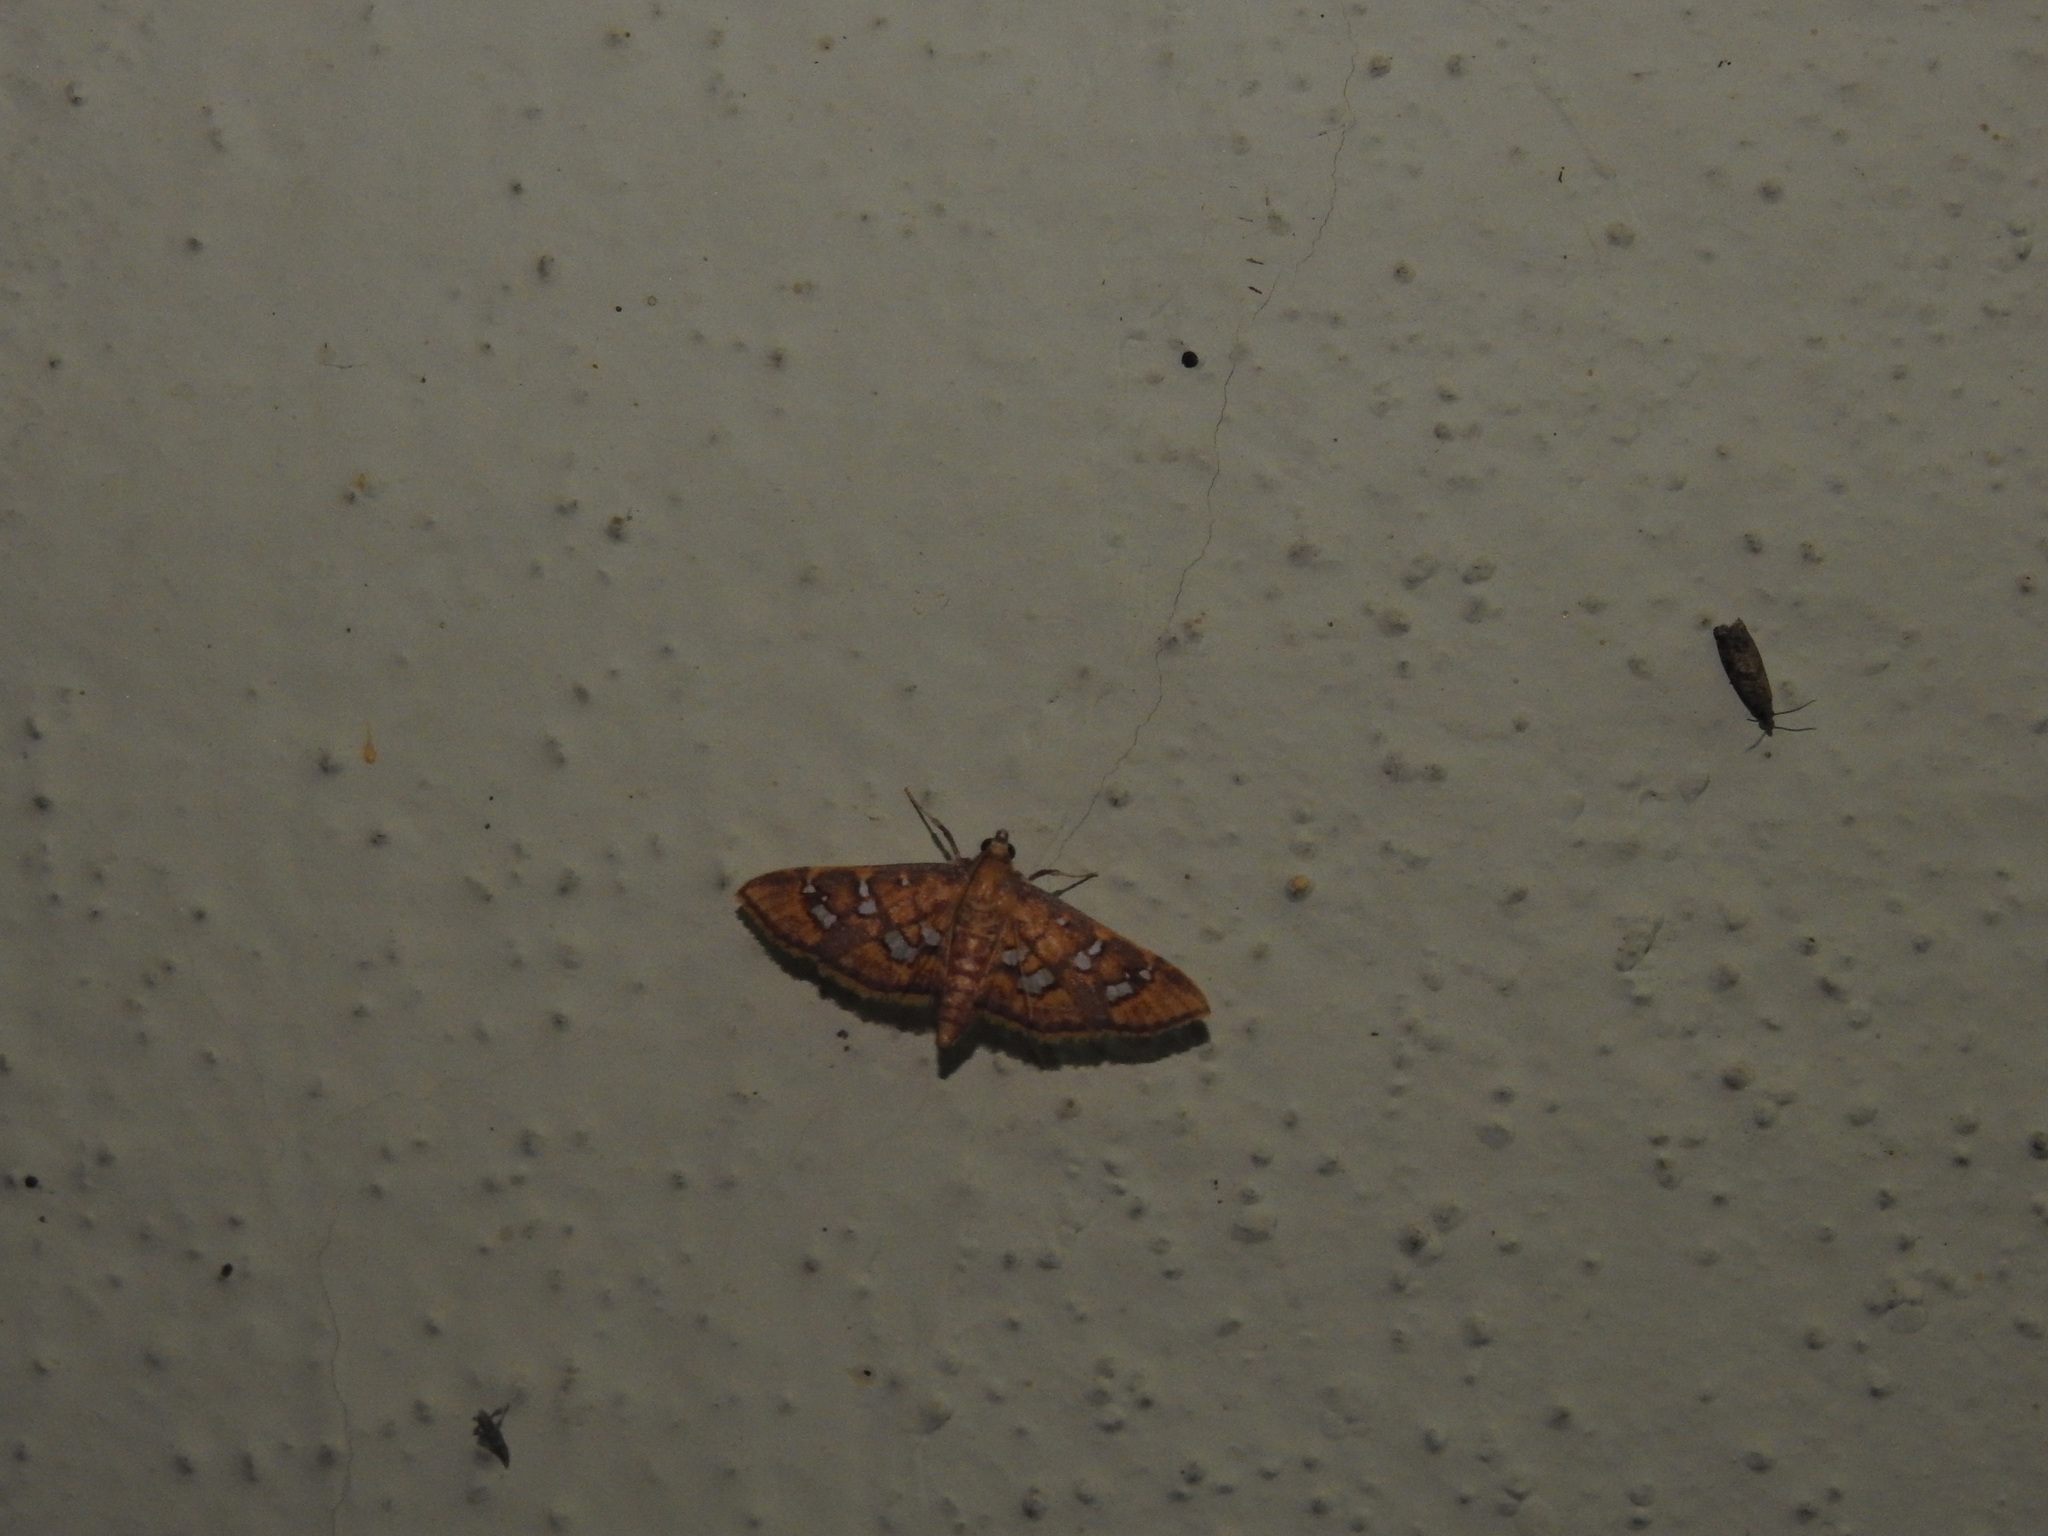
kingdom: Animalia
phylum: Arthropoda
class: Insecta
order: Lepidoptera
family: Crambidae
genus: Ischnurges
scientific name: Ischnurges gratiosalis
